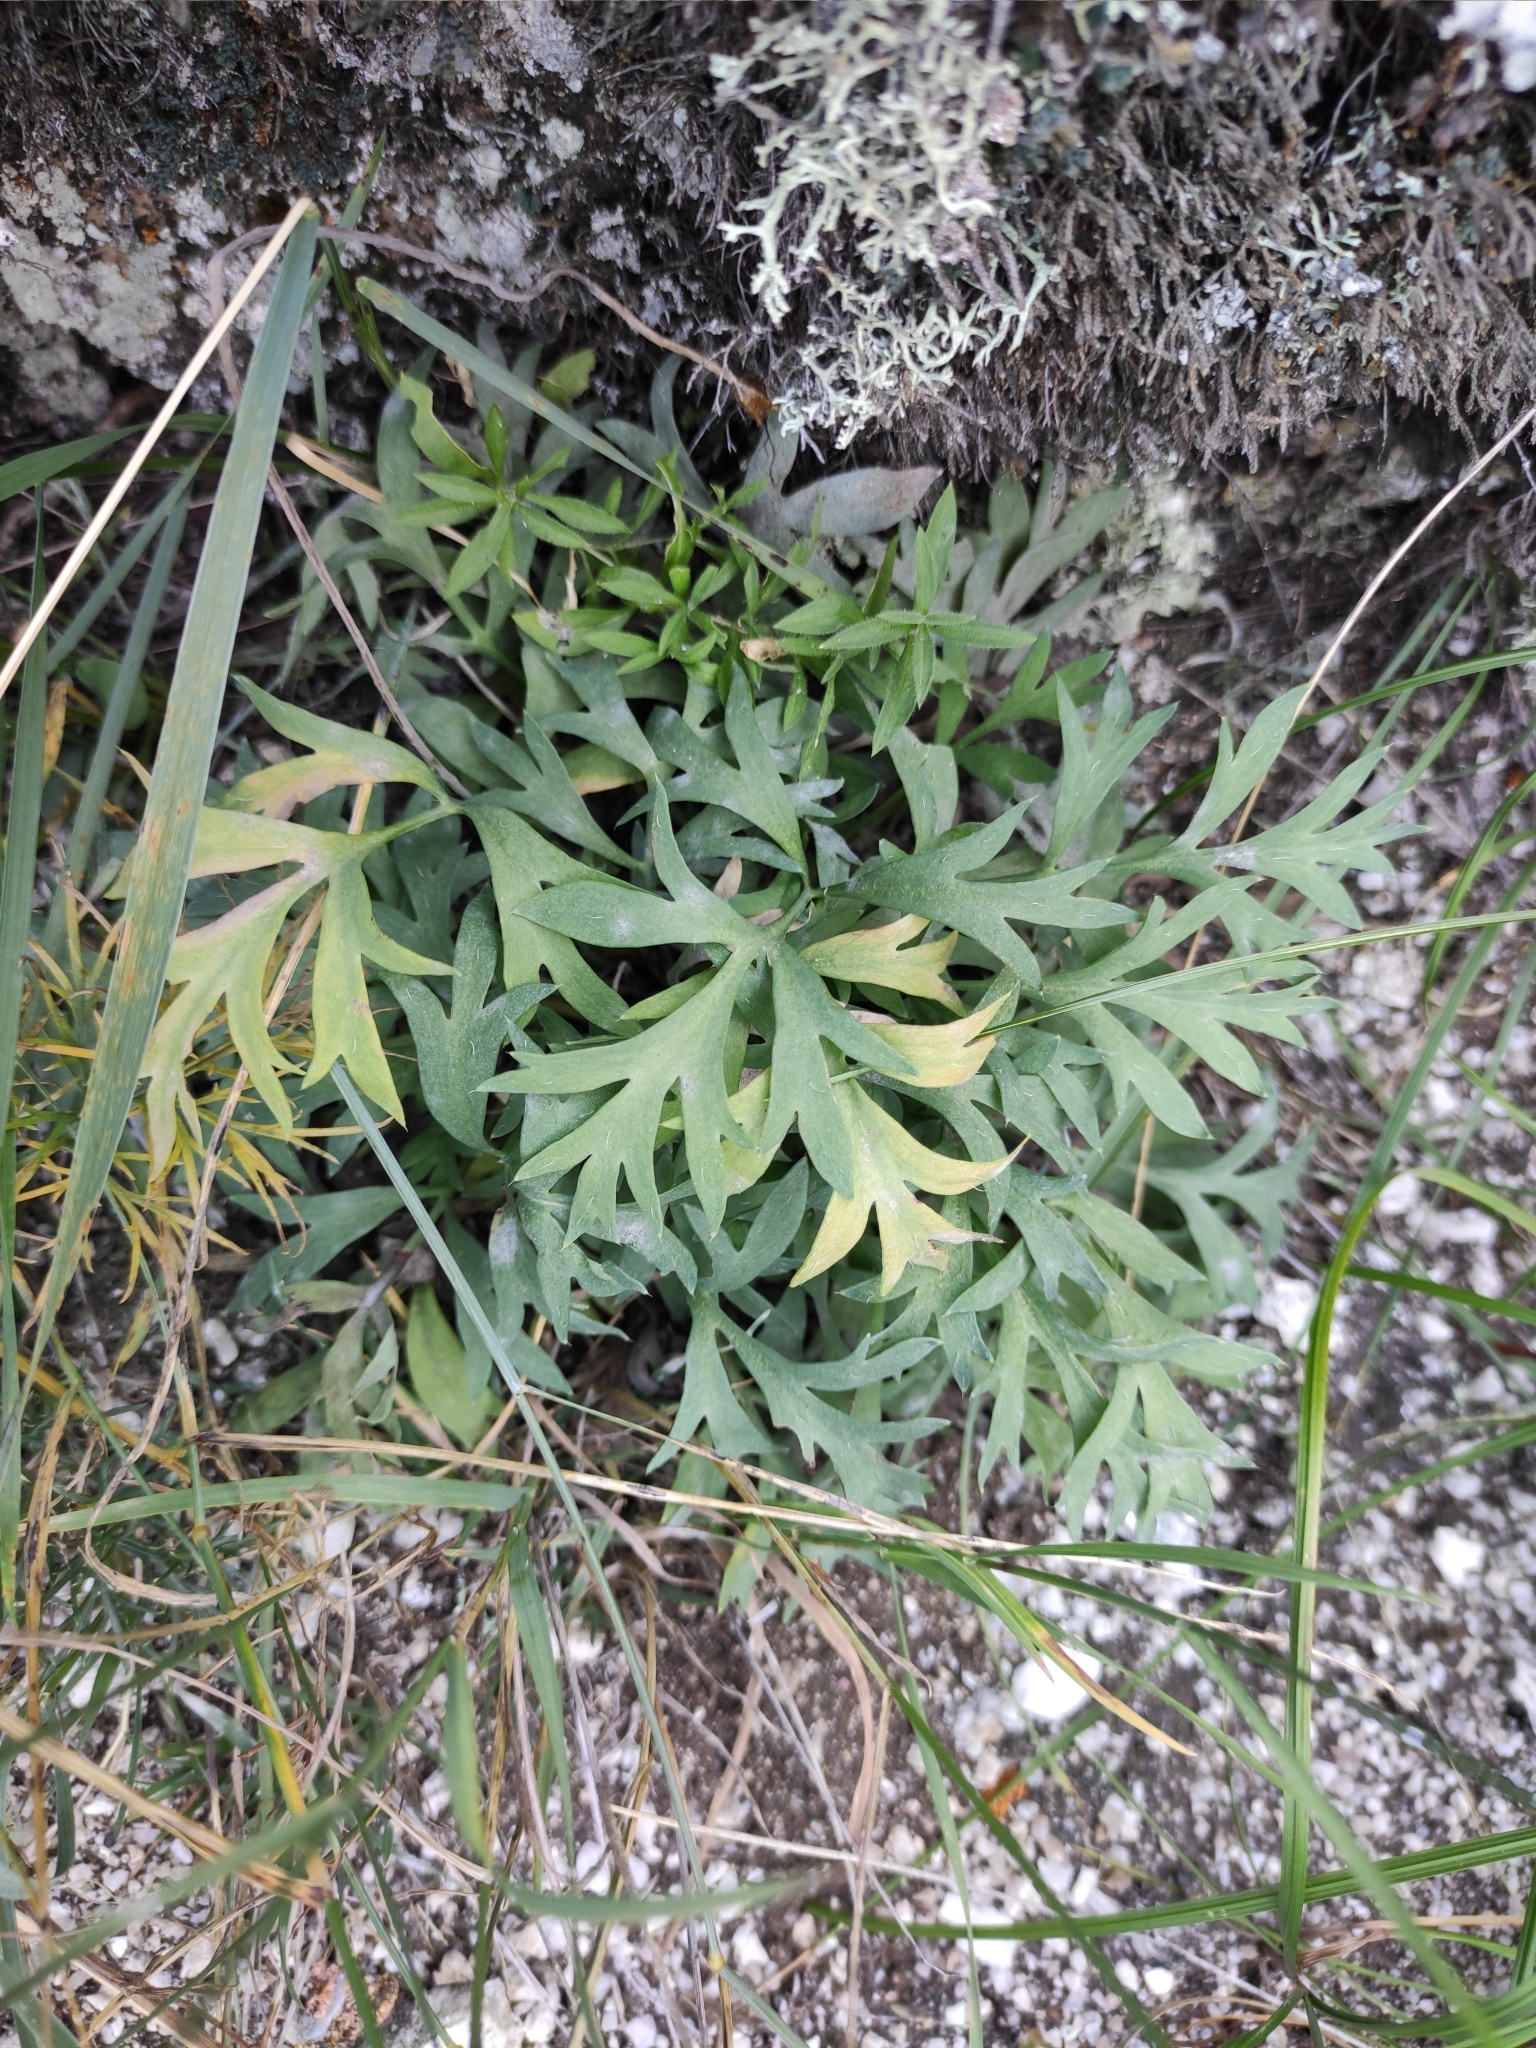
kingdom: Plantae
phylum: Tracheophyta
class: Magnoliopsida
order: Ranunculales
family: Ranunculaceae
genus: Pulsatilla
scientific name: Pulsatilla patens
